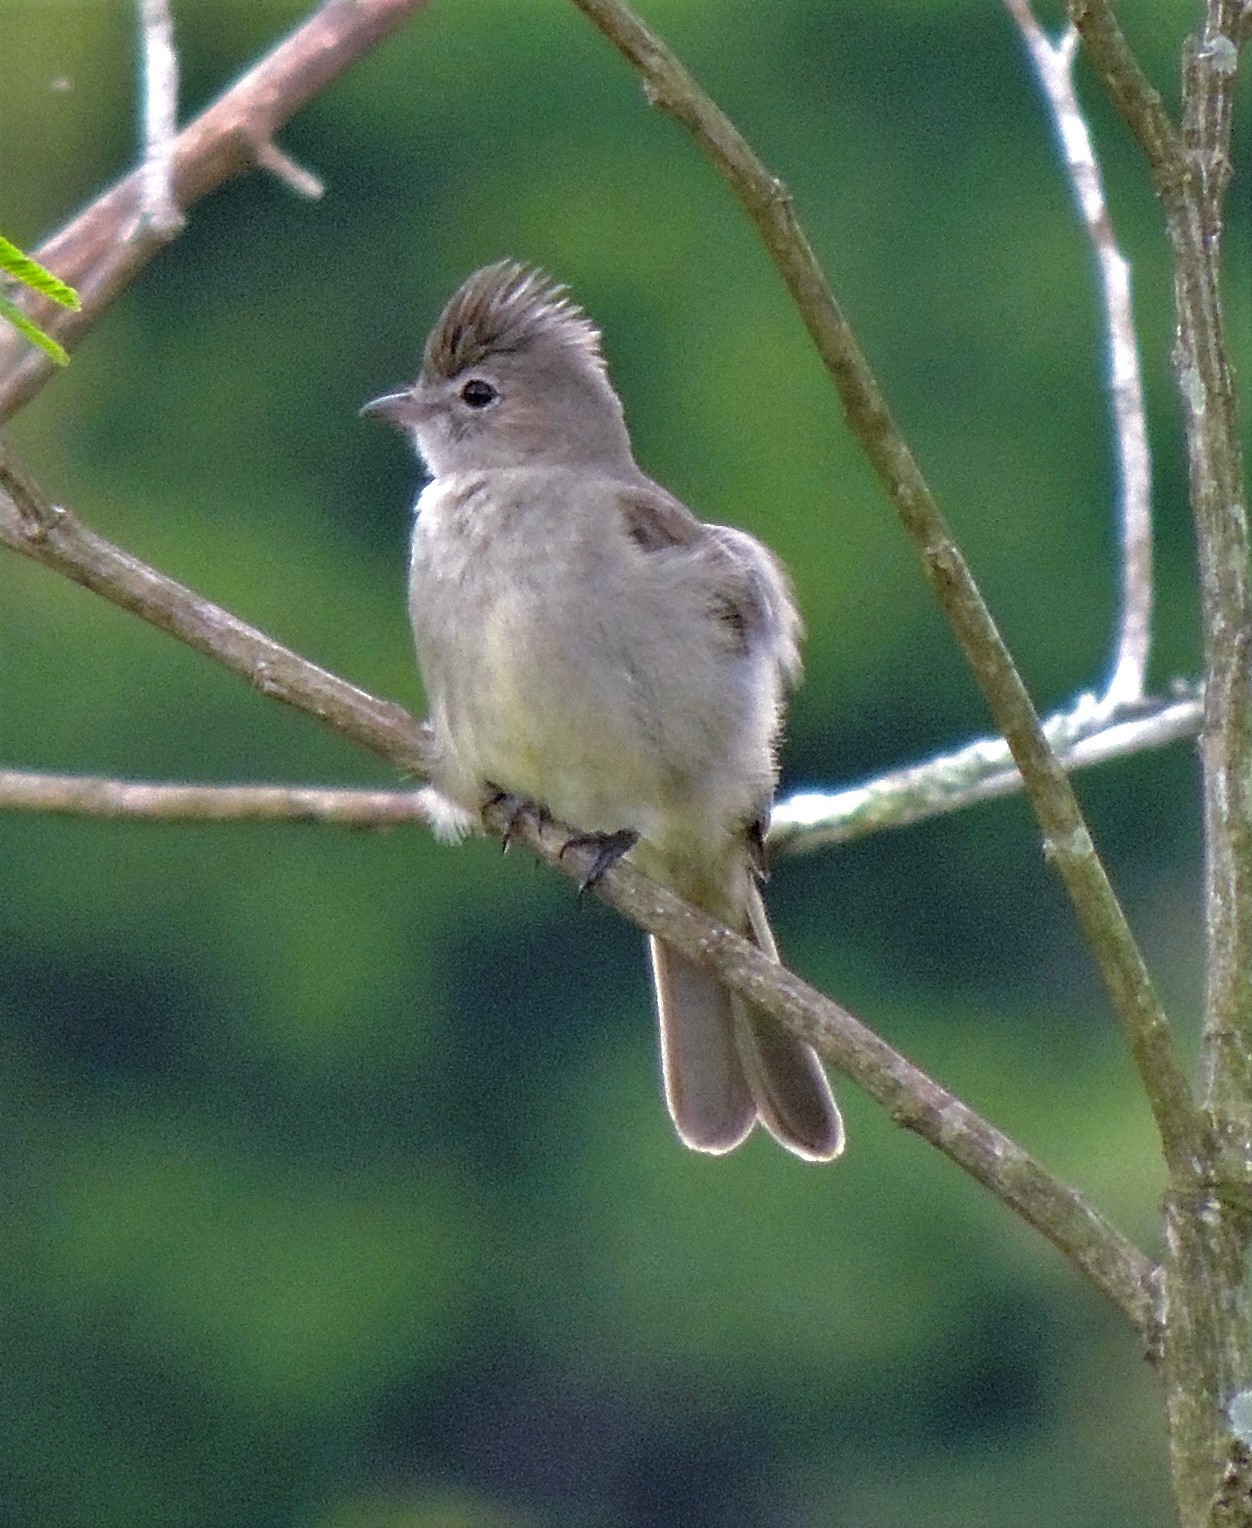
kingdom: Animalia
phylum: Chordata
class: Aves
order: Passeriformes
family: Tyrannidae
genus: Elaenia
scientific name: Elaenia flavogaster
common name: Yellow-bellied elaenia
